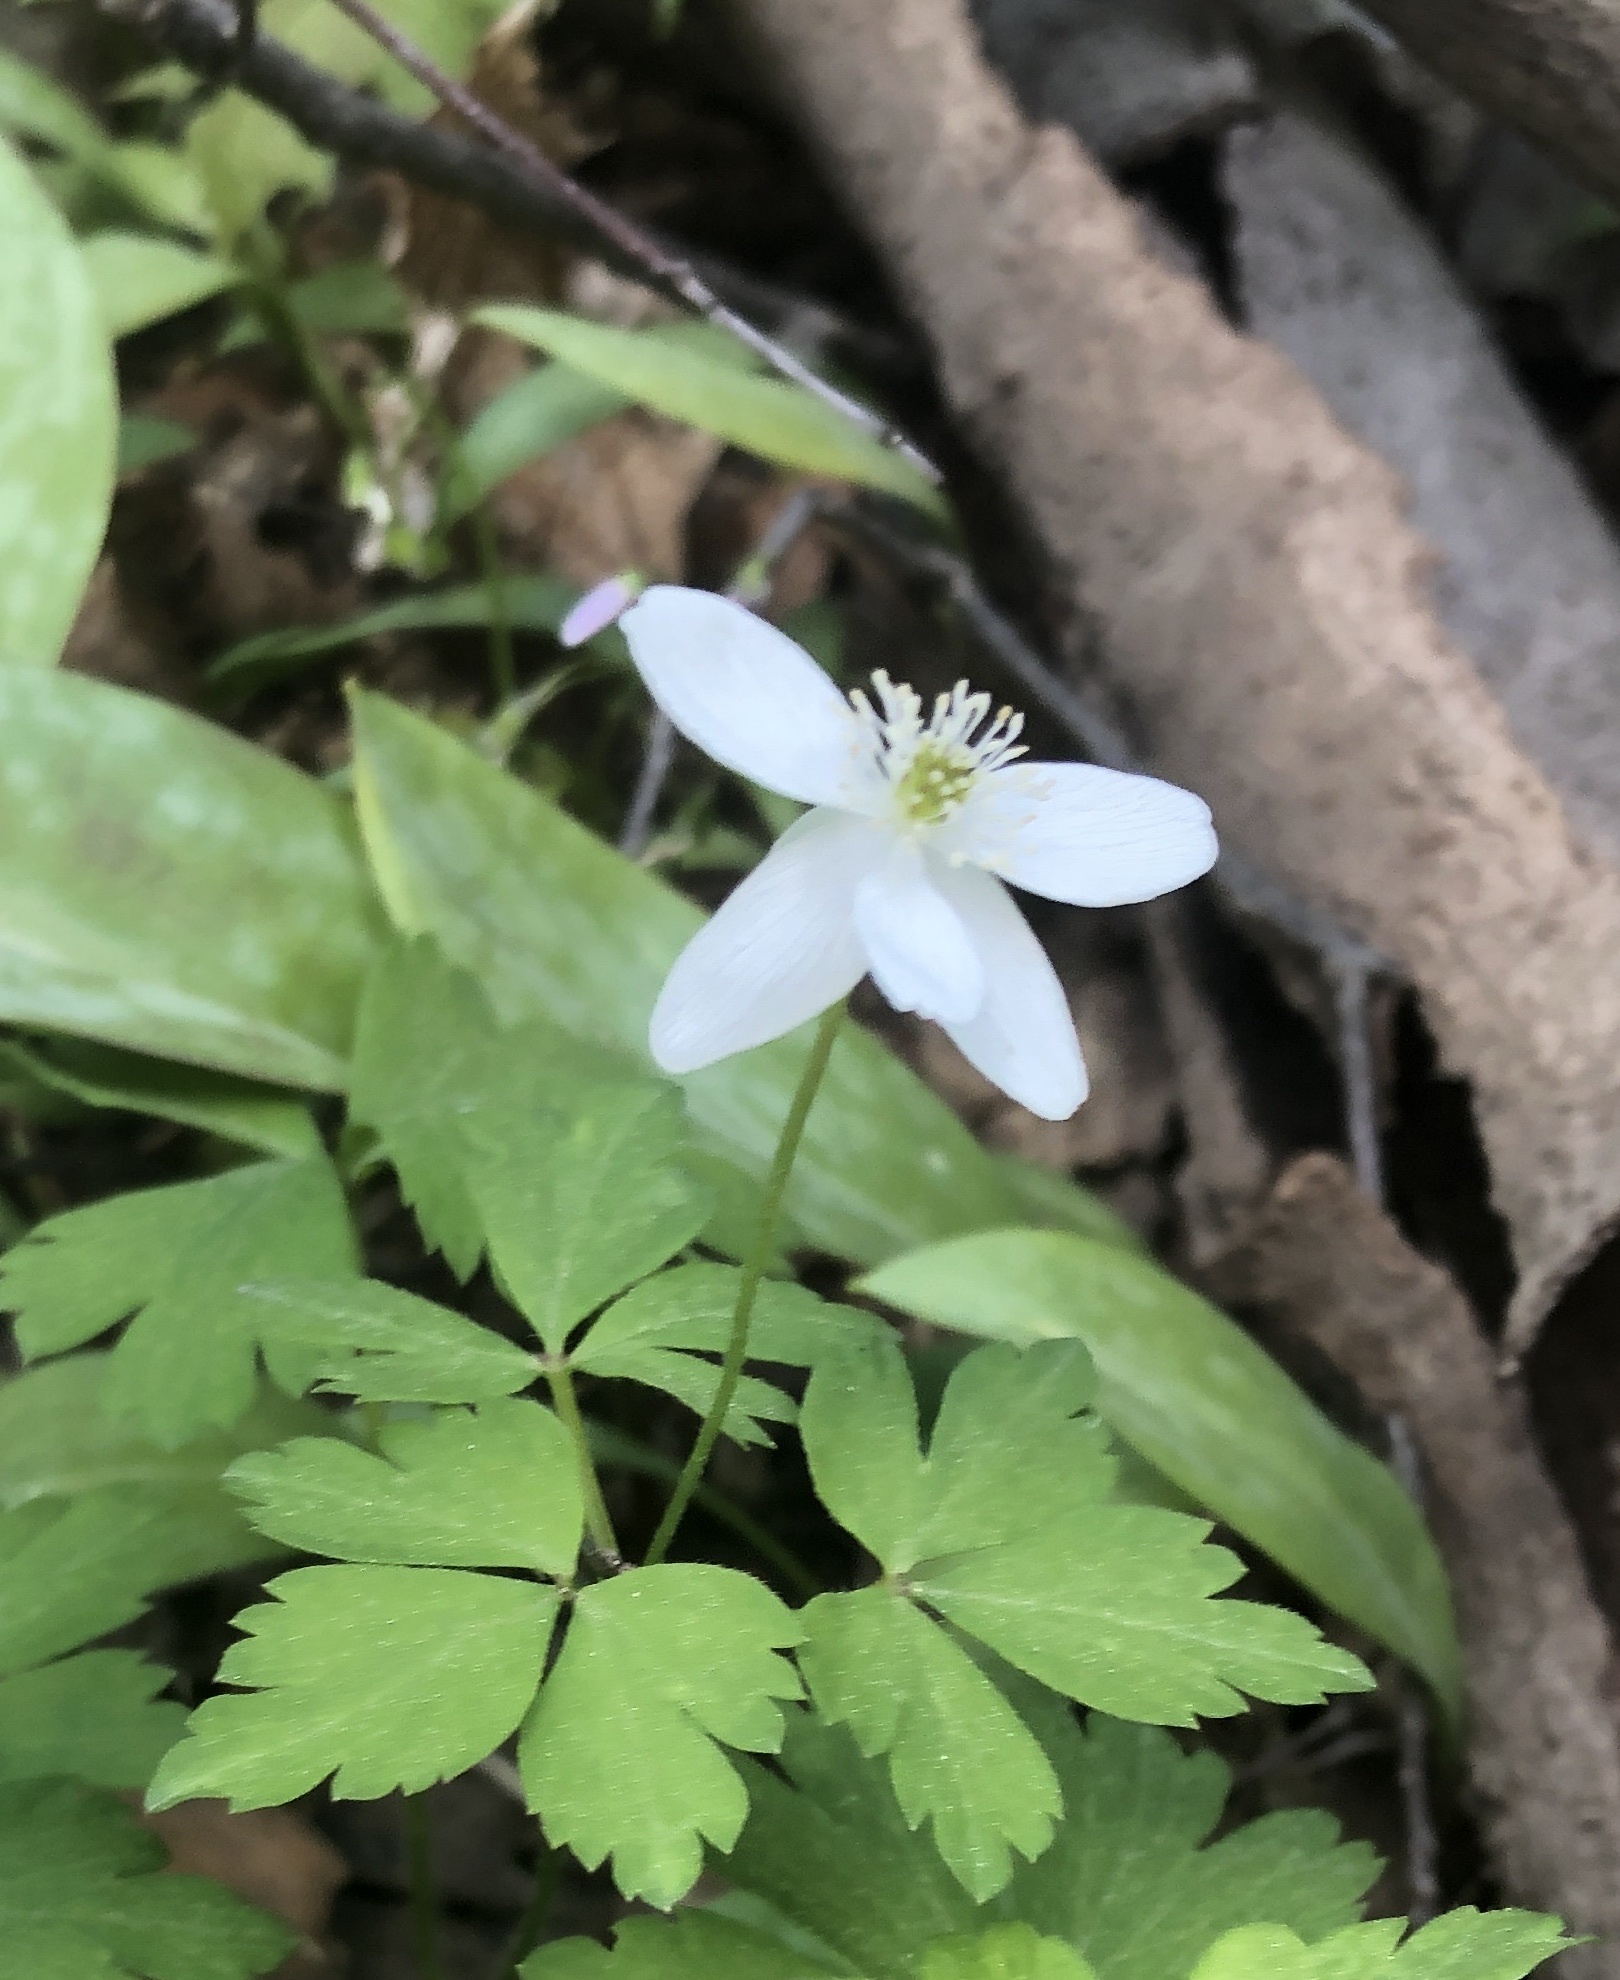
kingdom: Plantae
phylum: Tracheophyta
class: Magnoliopsida
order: Ranunculales
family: Ranunculaceae
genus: Anemone
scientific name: Anemone quinquefolia
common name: Wood anemone
